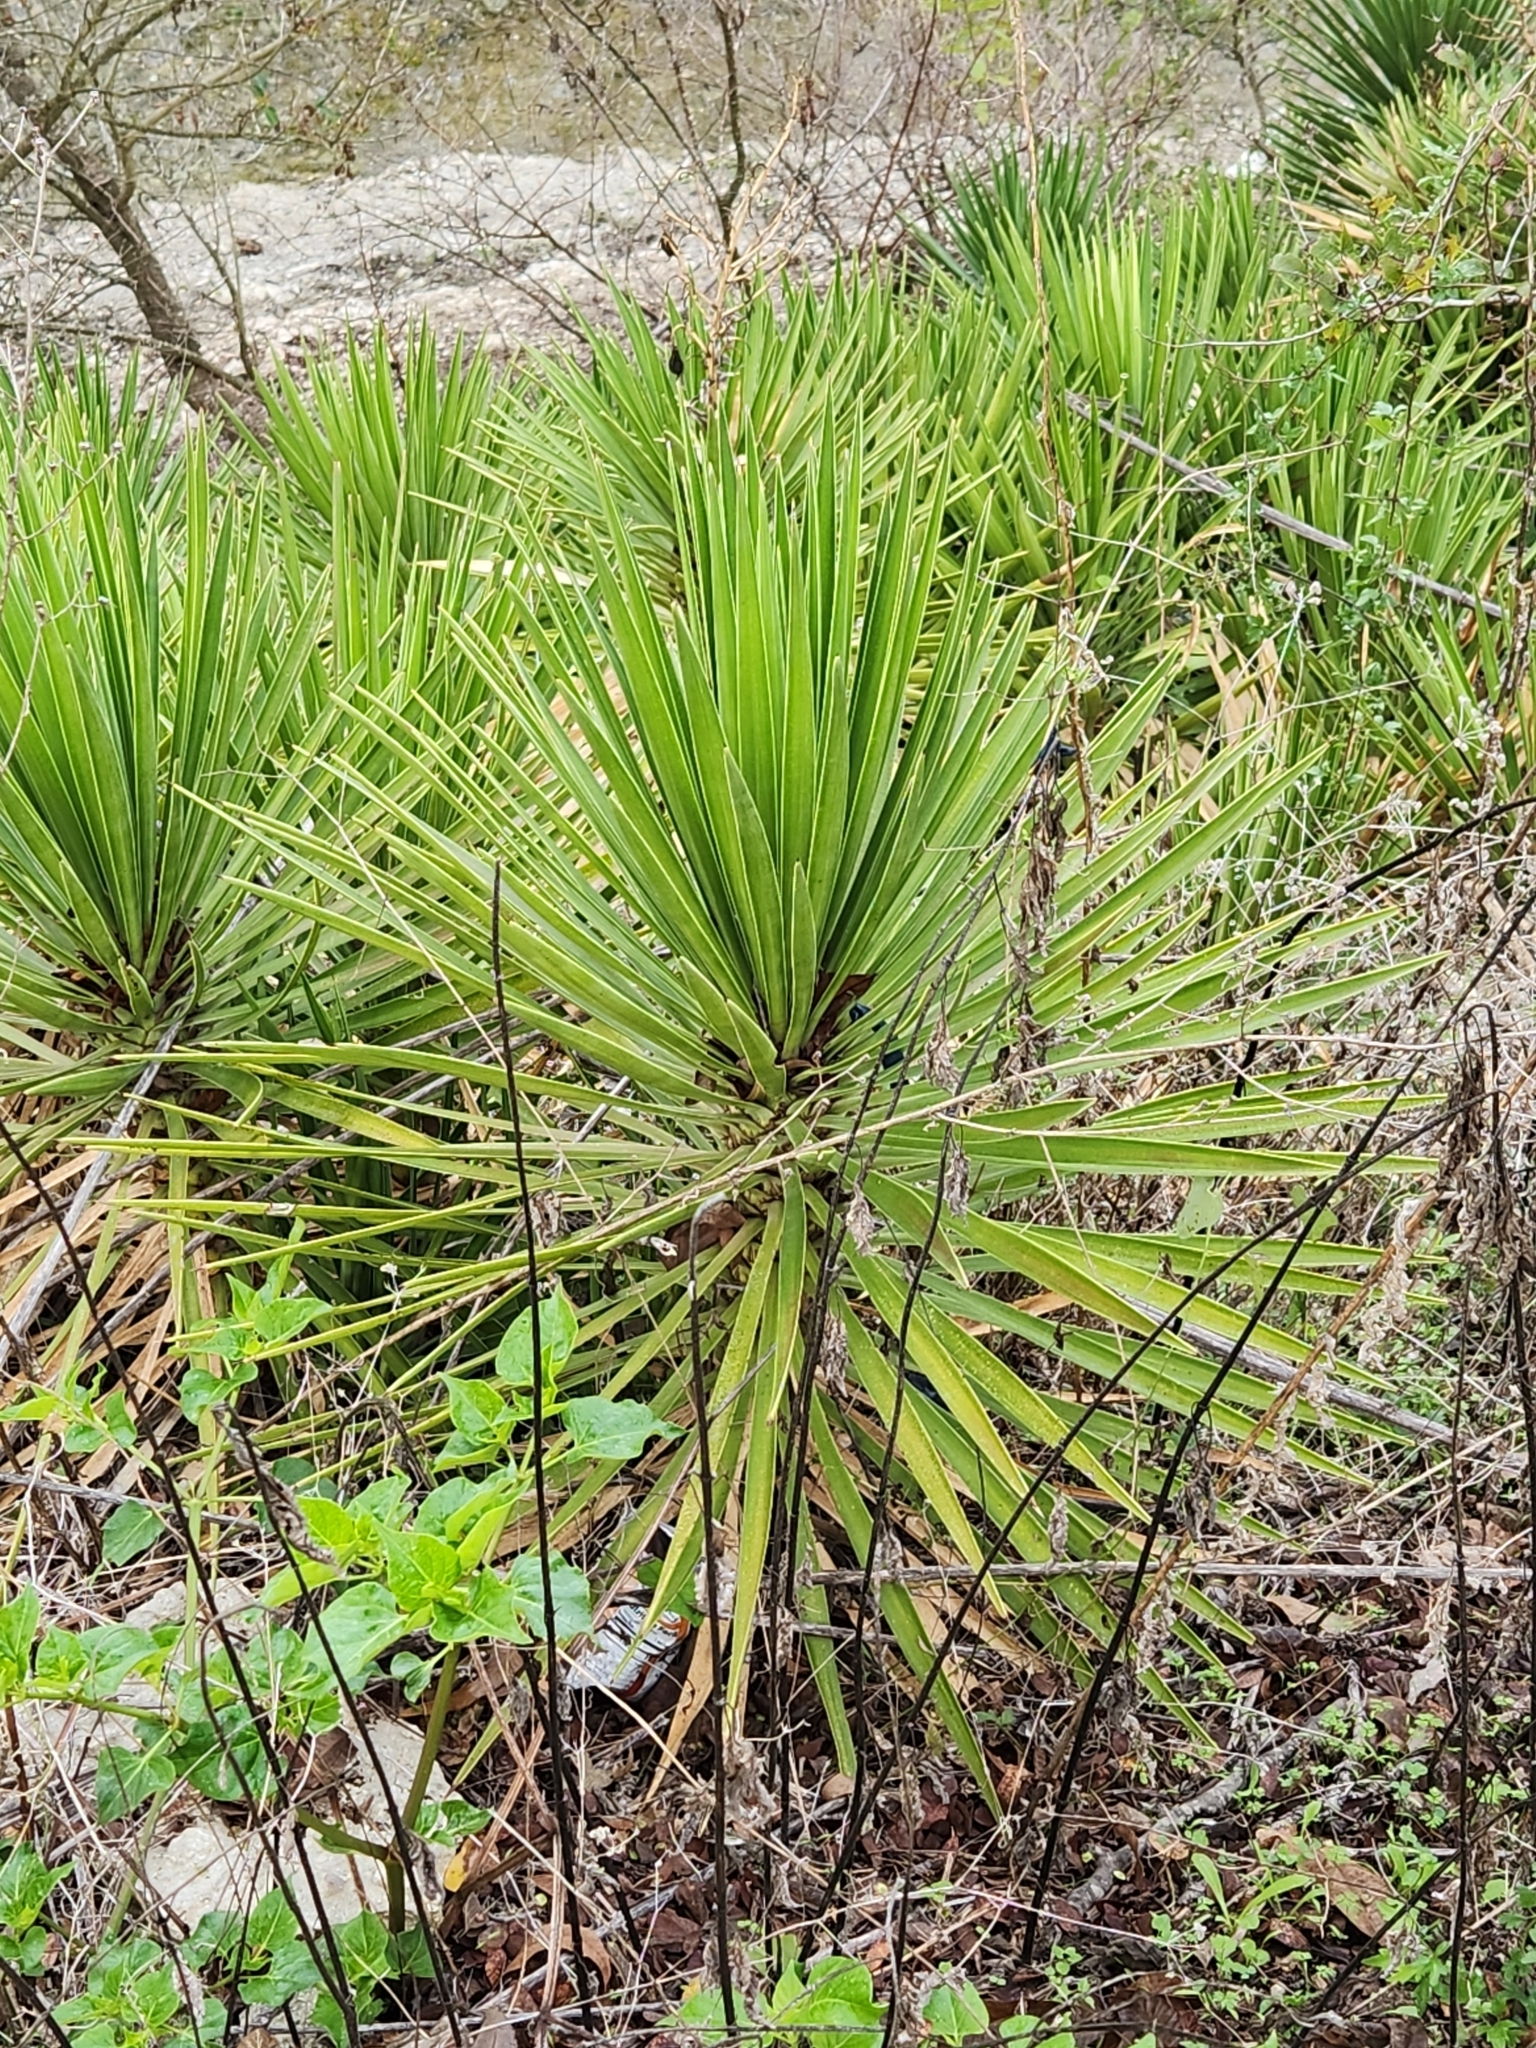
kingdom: Plantae
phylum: Tracheophyta
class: Liliopsida
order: Asparagales
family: Asparagaceae
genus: Yucca
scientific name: Yucca aloifolia
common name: Aloe yucca
